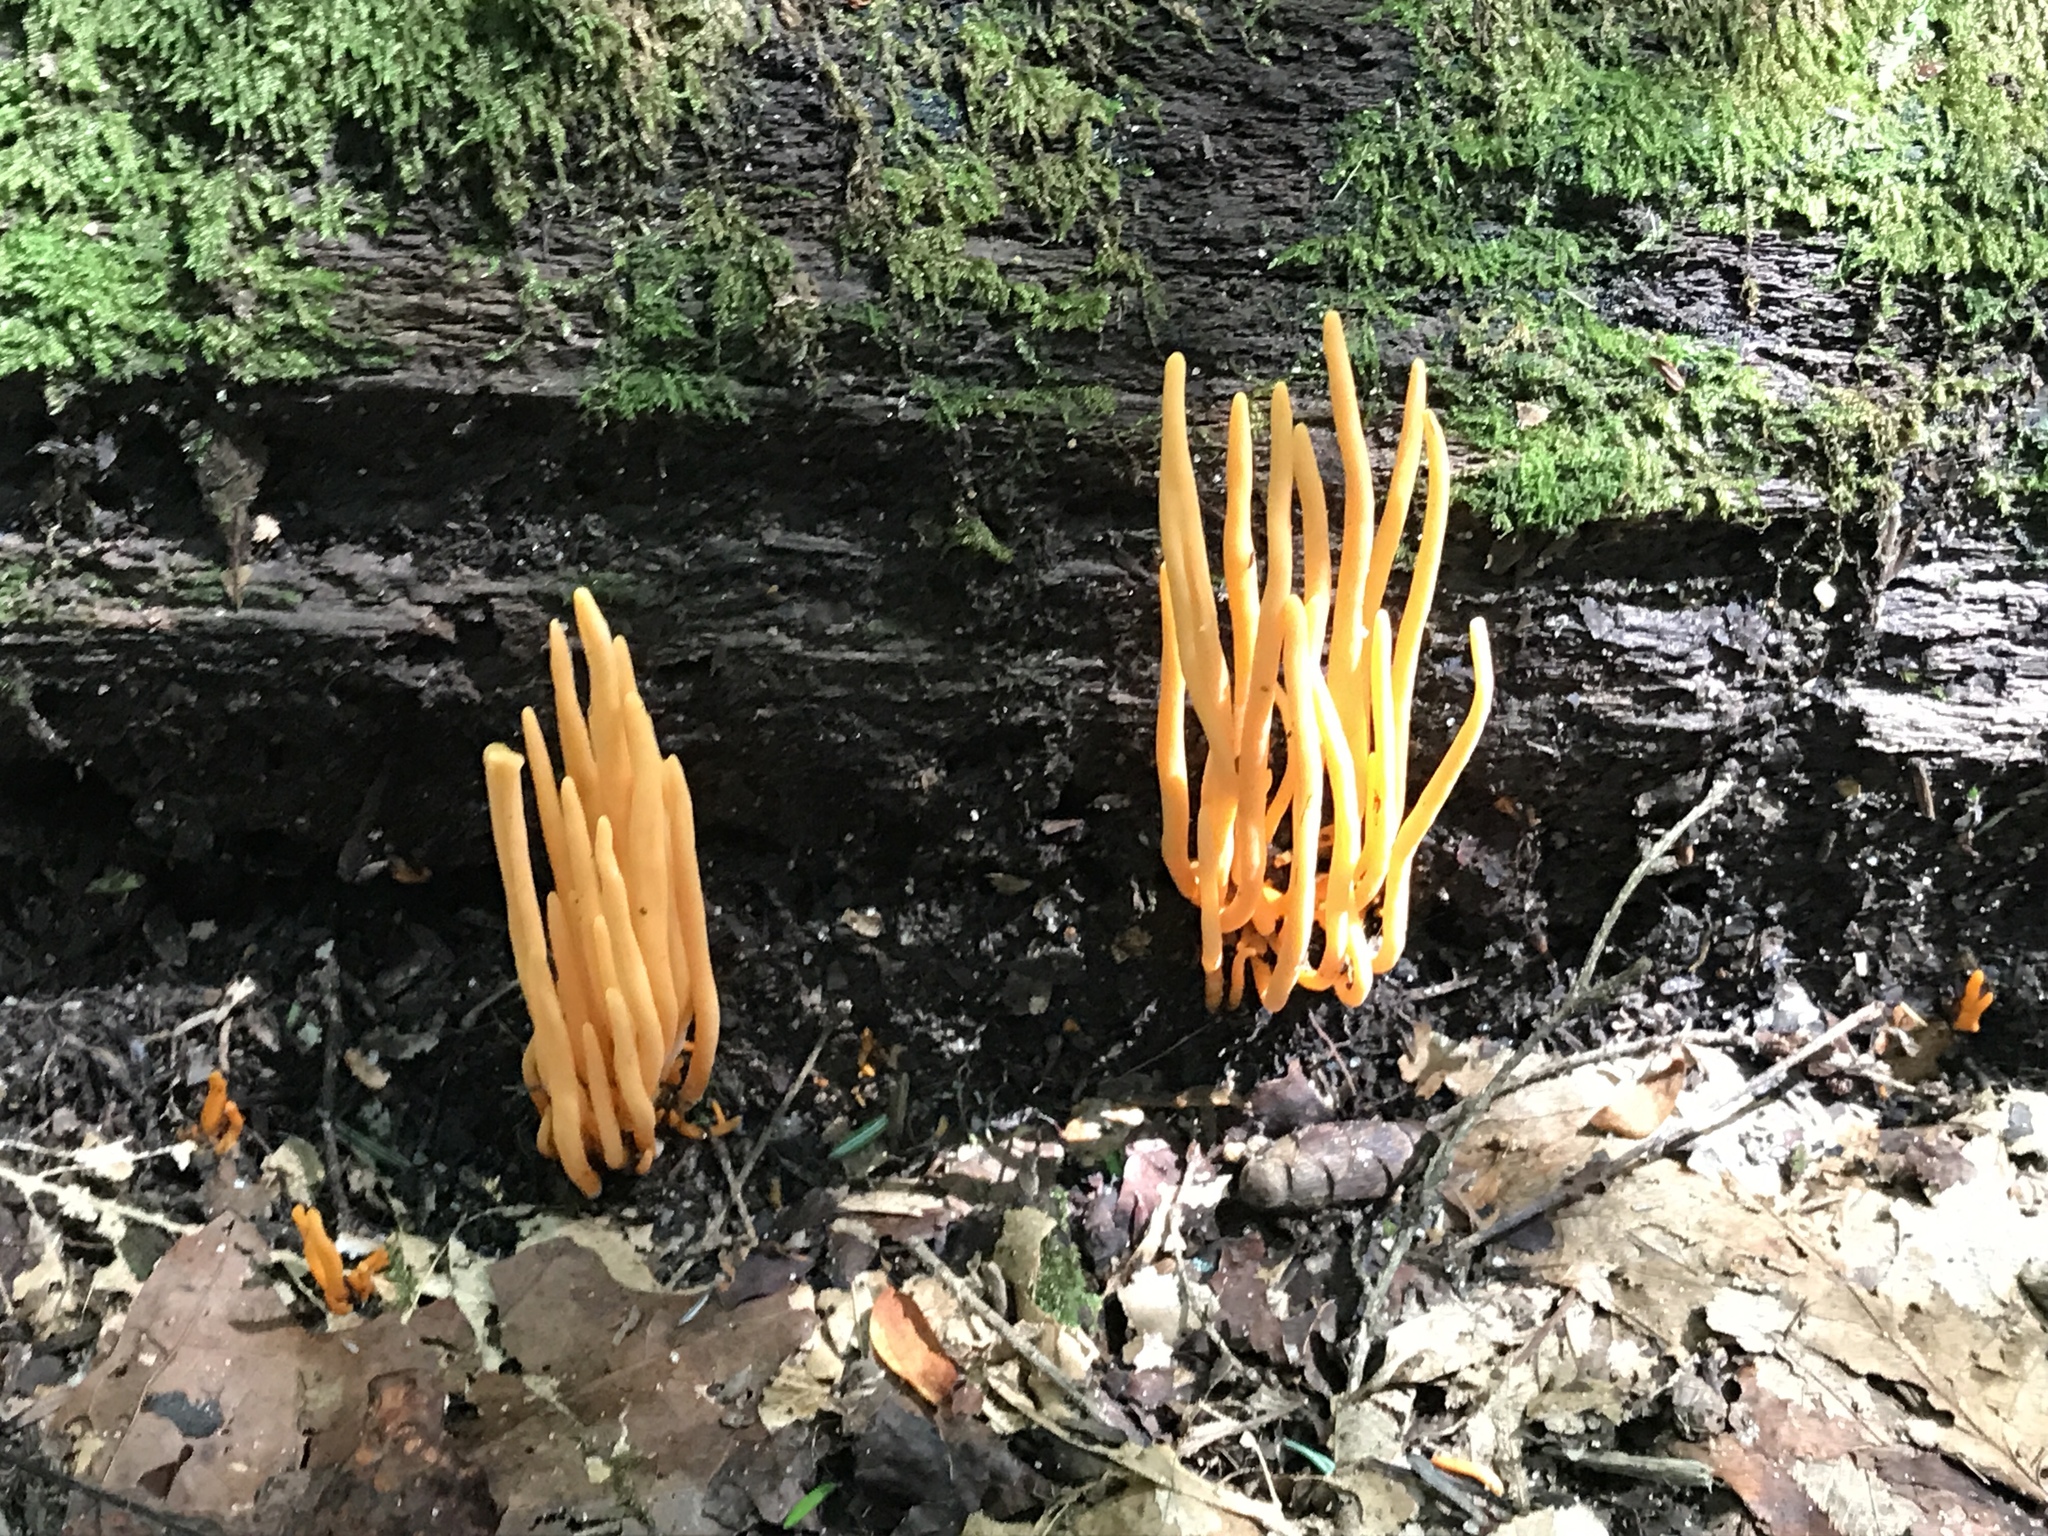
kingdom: Fungi
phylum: Basidiomycota
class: Agaricomycetes
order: Agaricales
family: Clavariaceae
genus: Clavulinopsis
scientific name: Clavulinopsis aurantiocinnabarina
